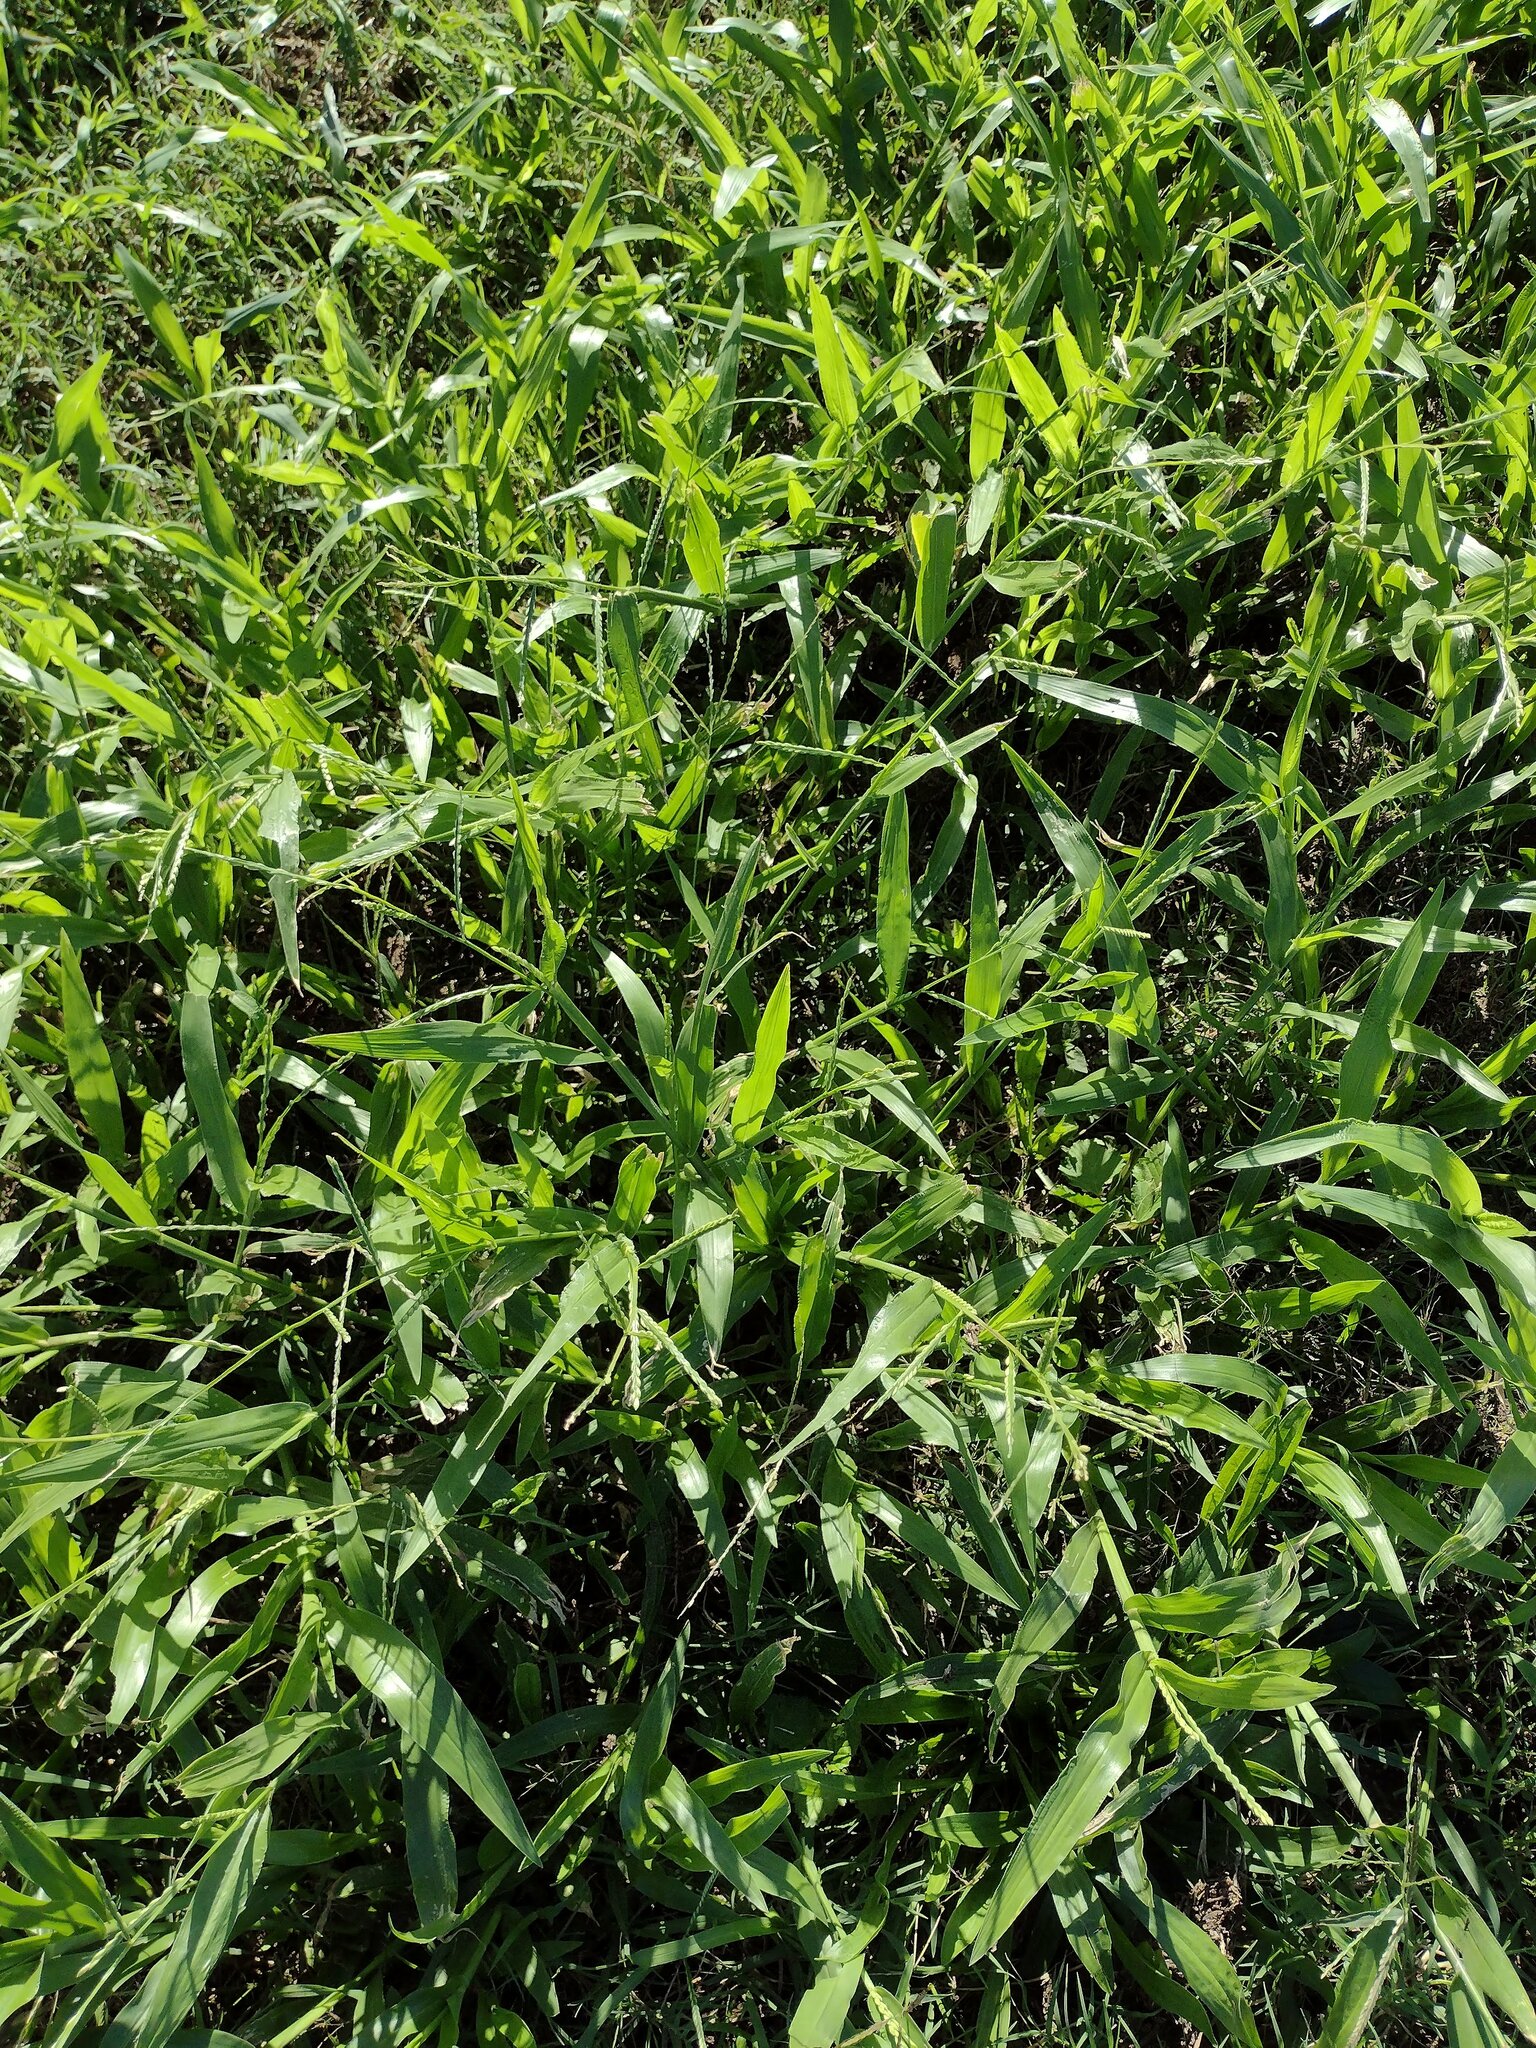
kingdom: Plantae
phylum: Tracheophyta
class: Liliopsida
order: Poales
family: Poaceae
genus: Urochloa
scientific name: Urochloa plantaginea
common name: Plantain signalgrass
